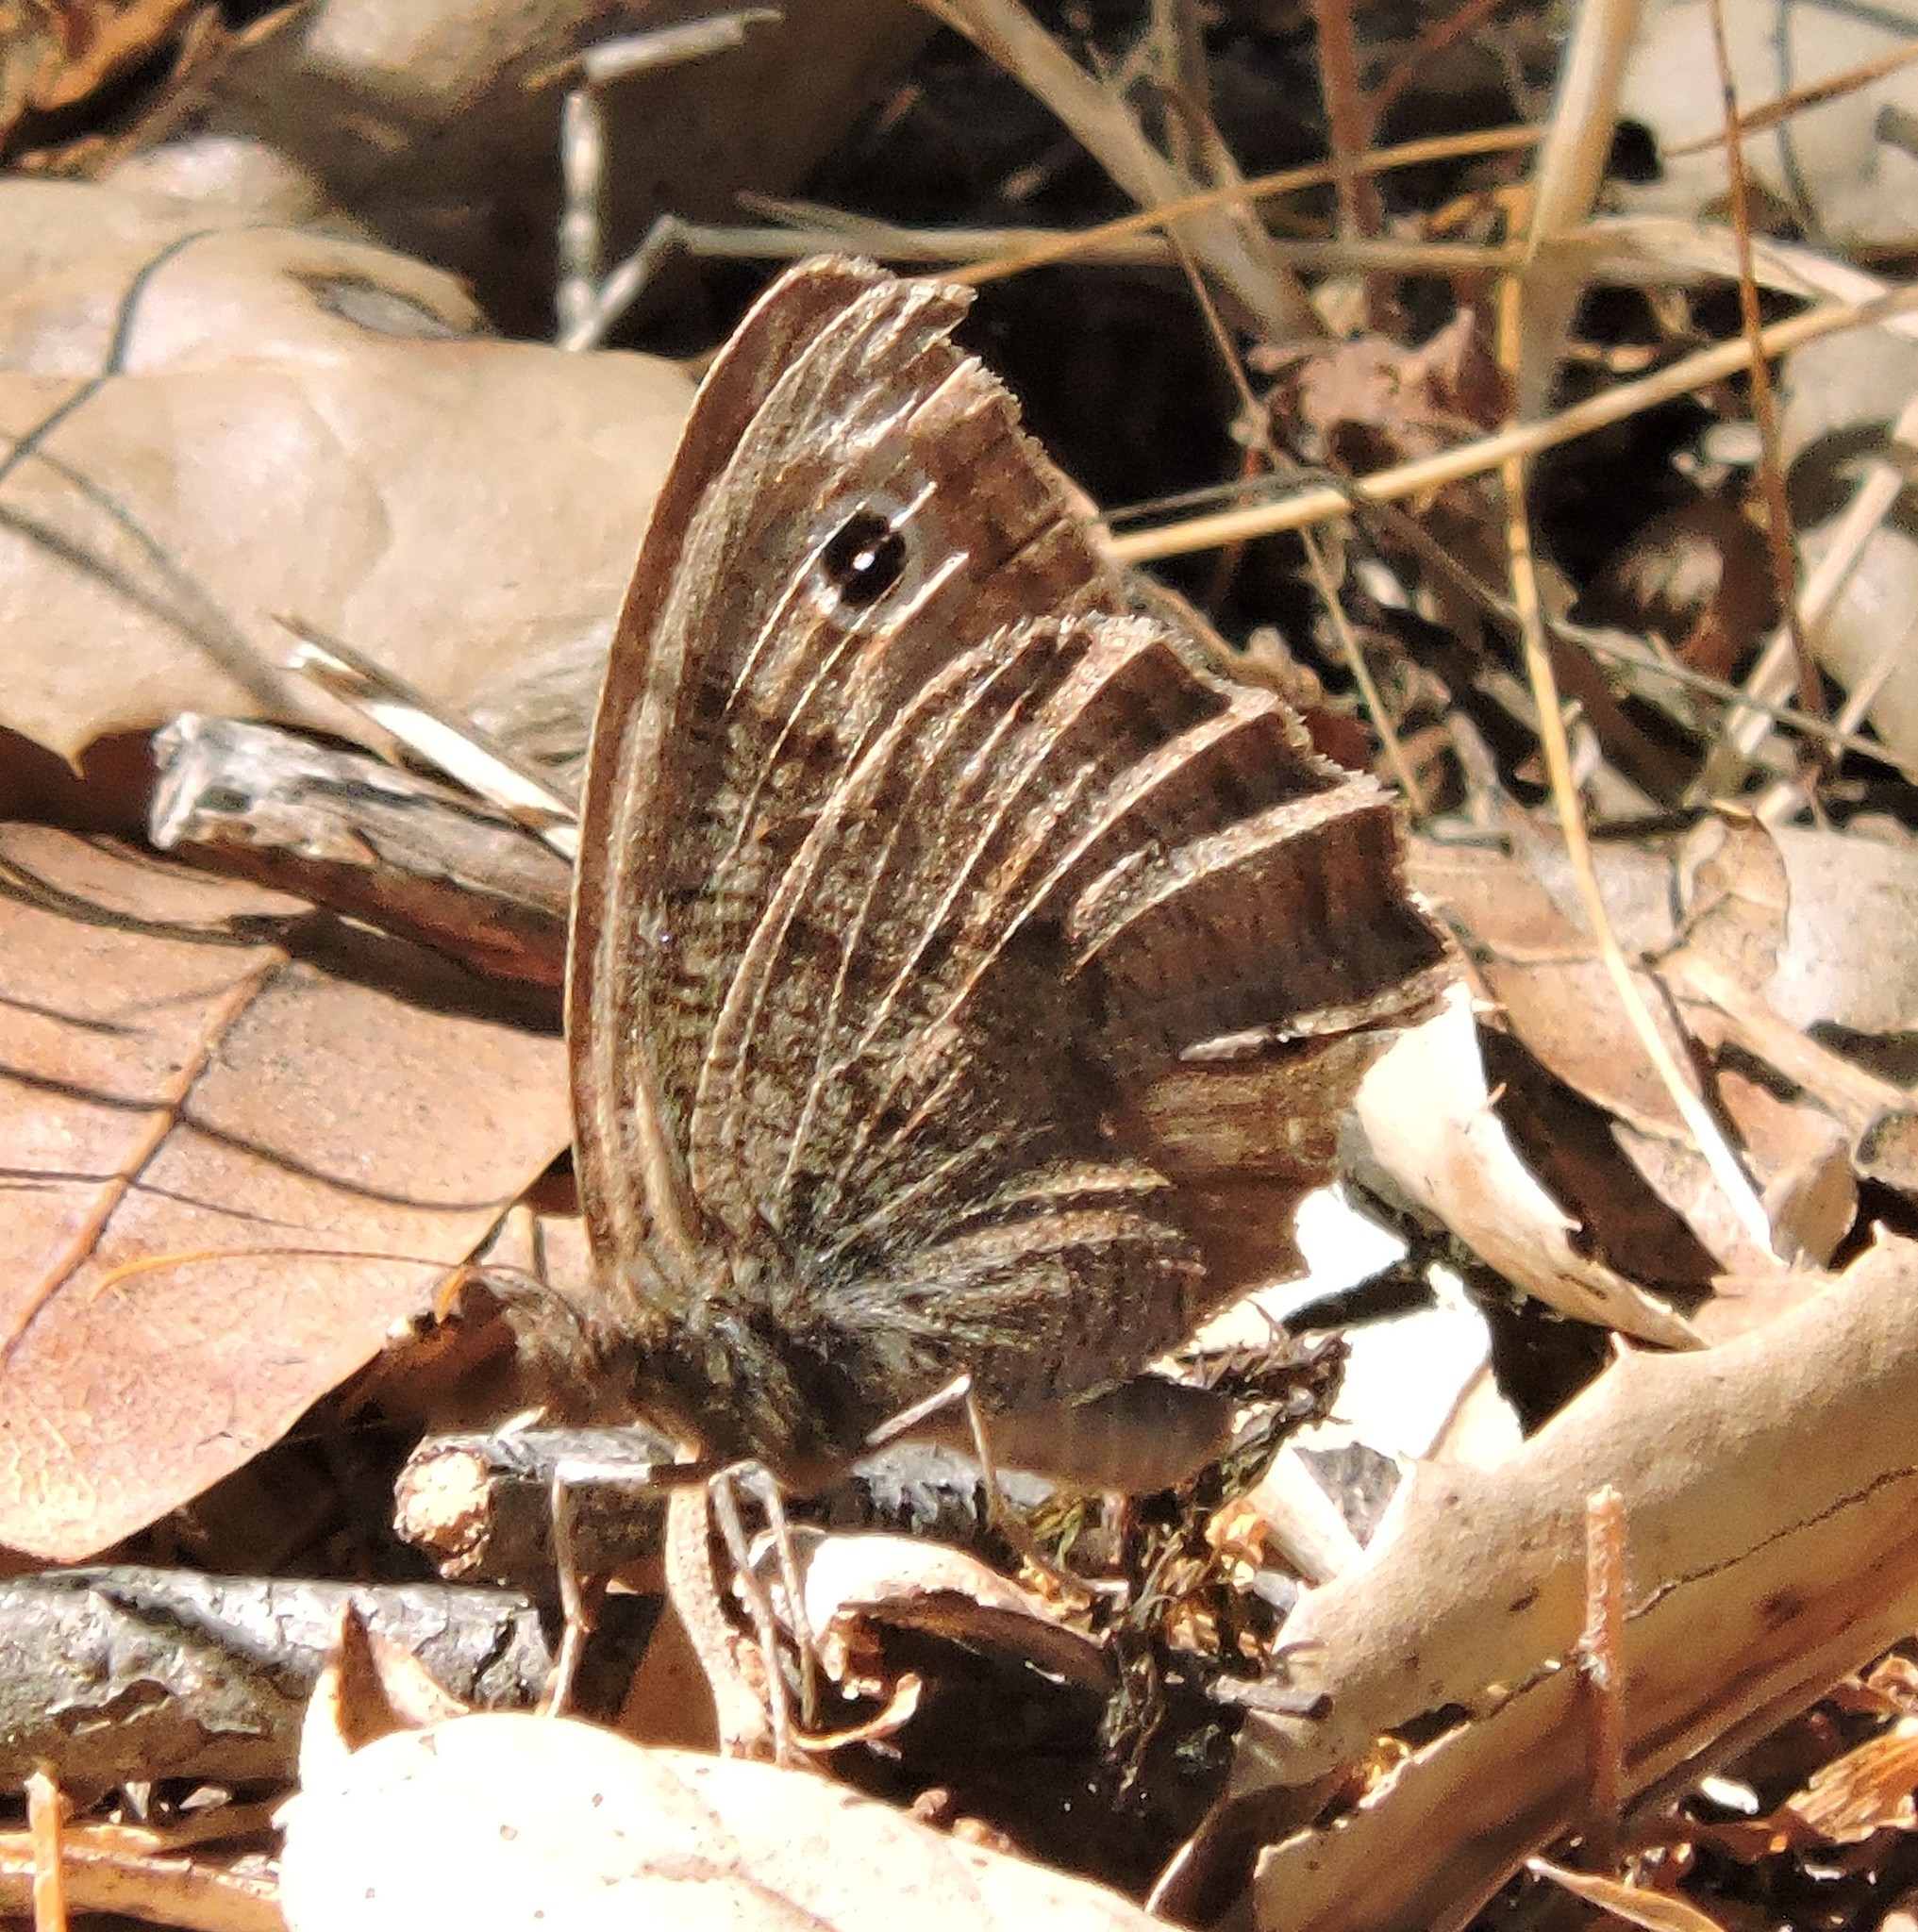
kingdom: Animalia
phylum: Arthropoda
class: Insecta
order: Lepidoptera
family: Nymphalidae
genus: Cercyonis
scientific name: Cercyonis pegala
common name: Common wood-nymph
